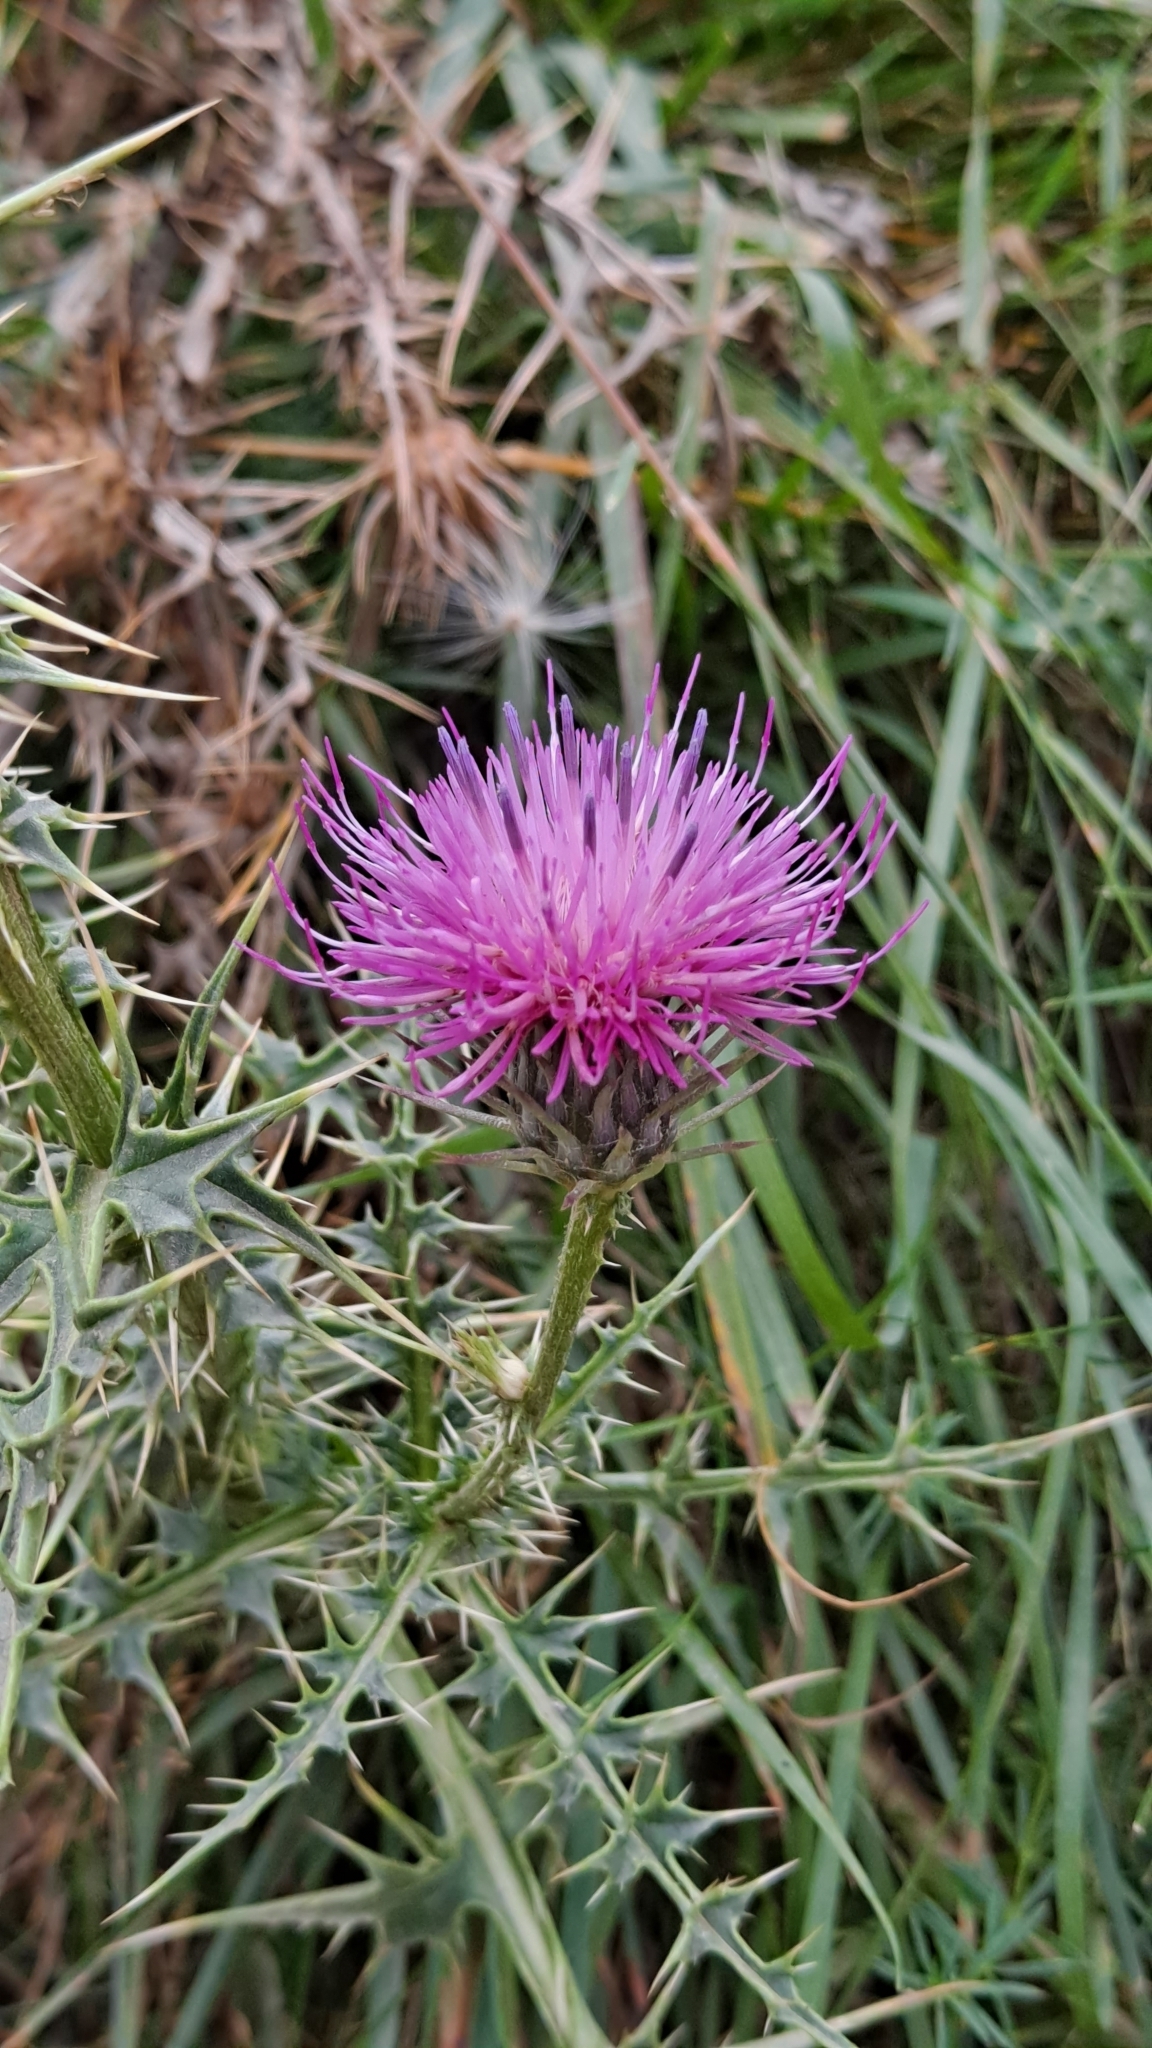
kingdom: Plantae
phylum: Tracheophyta
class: Magnoliopsida
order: Asterales
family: Asteraceae
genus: Carduus
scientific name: Carduus defloratus
